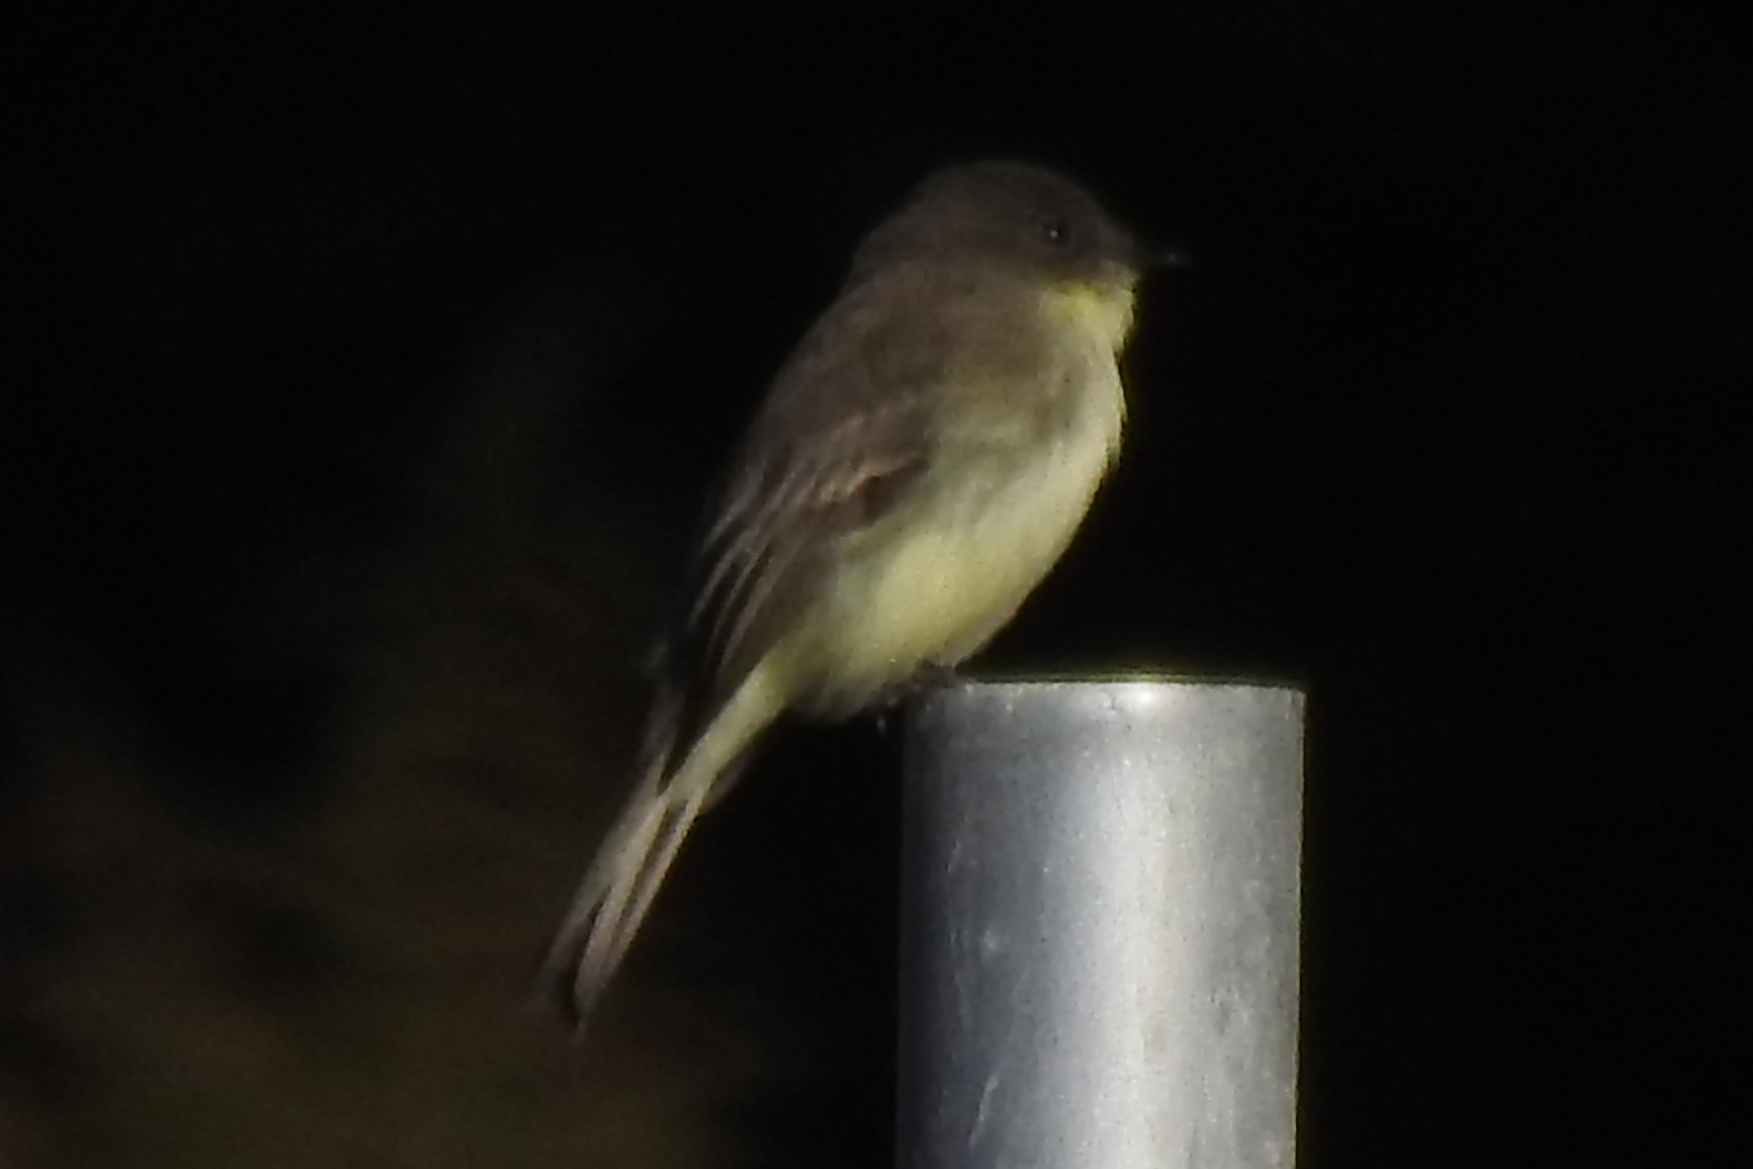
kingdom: Animalia
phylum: Chordata
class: Aves
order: Passeriformes
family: Tyrannidae
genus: Sayornis
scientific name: Sayornis phoebe
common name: Eastern phoebe
